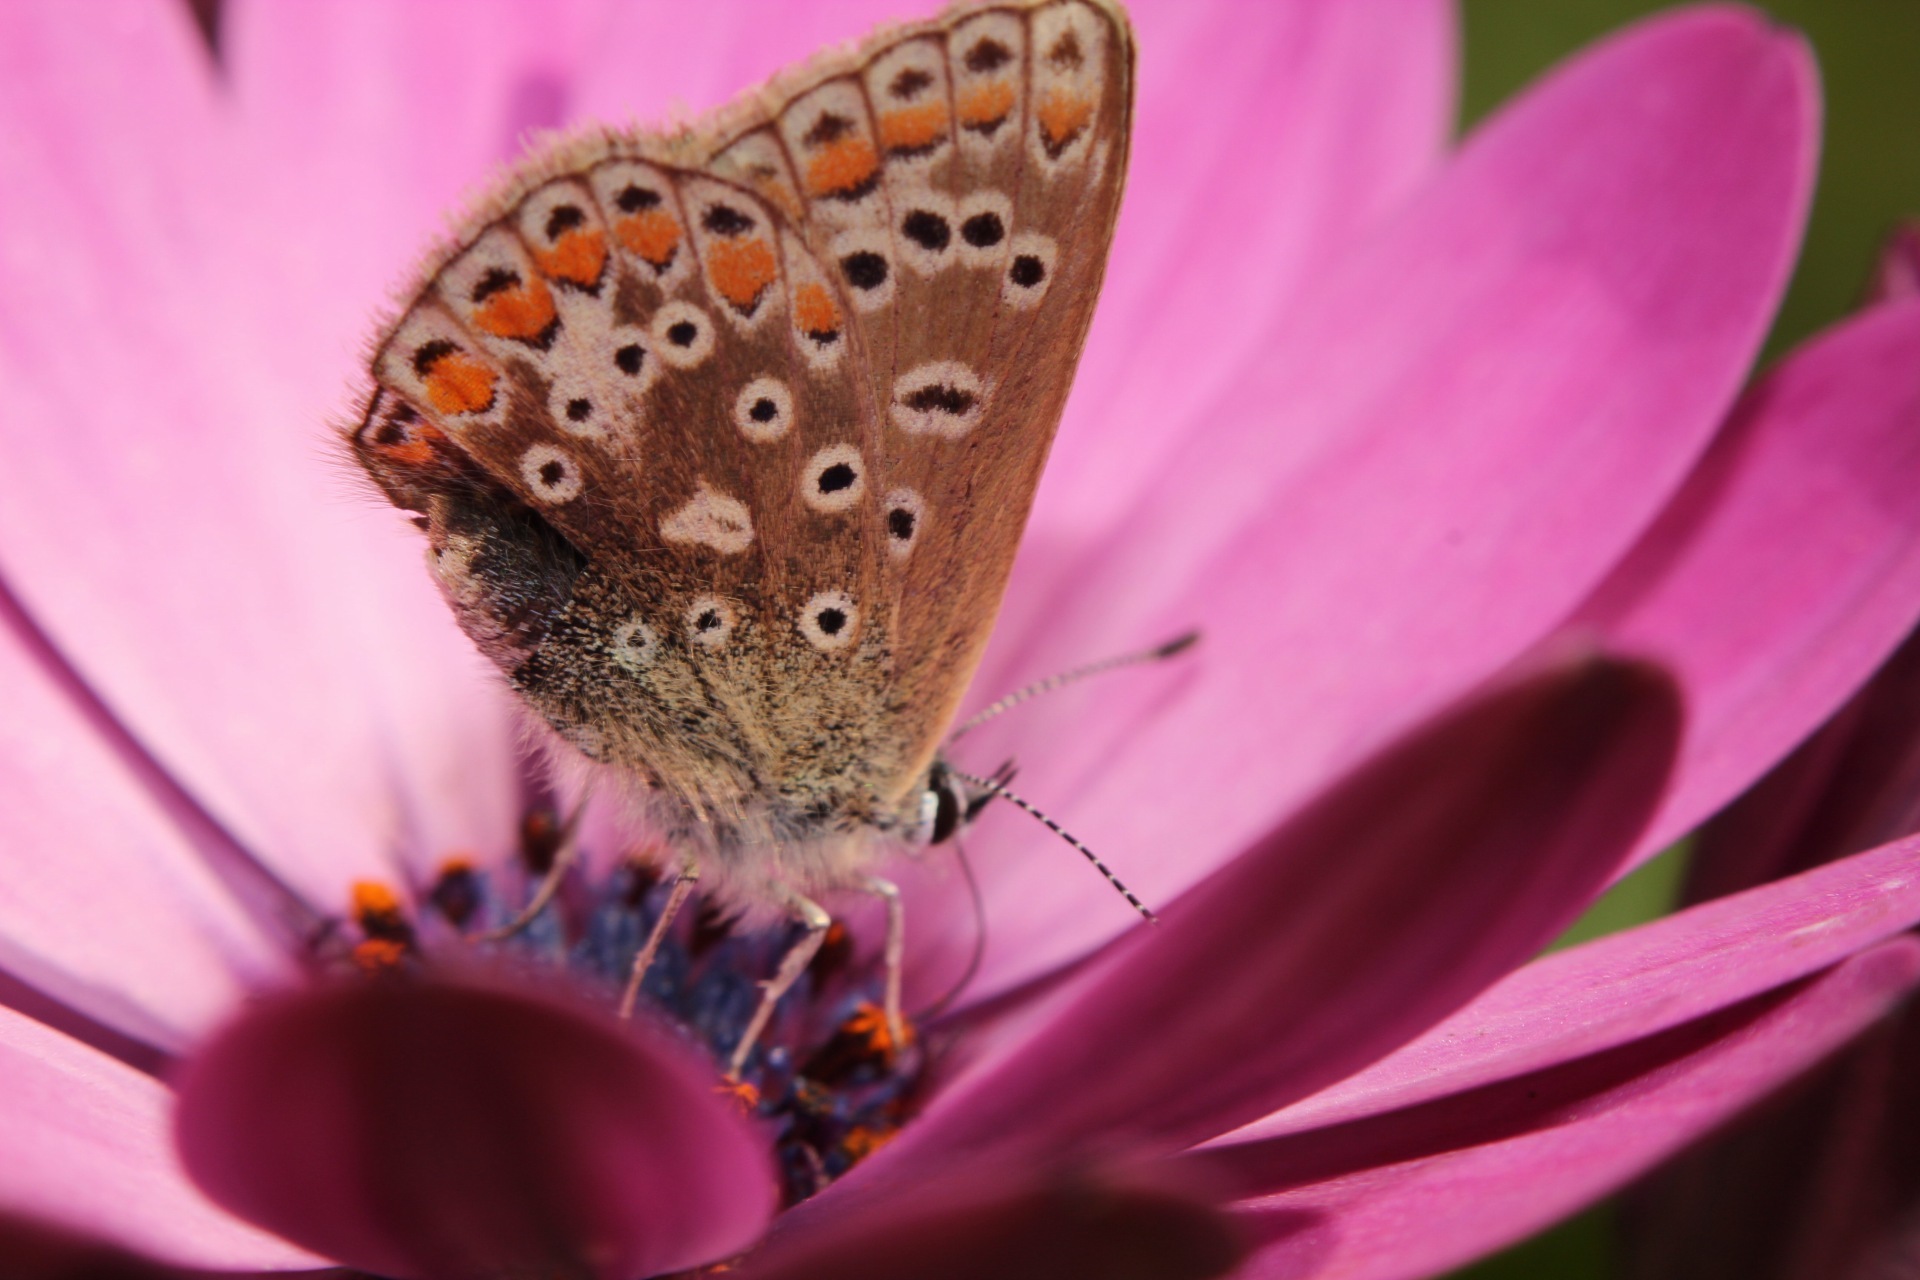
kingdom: Animalia
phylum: Arthropoda
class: Insecta
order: Lepidoptera
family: Lycaenidae
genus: Polyommatus
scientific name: Polyommatus icarus
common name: Common blue
